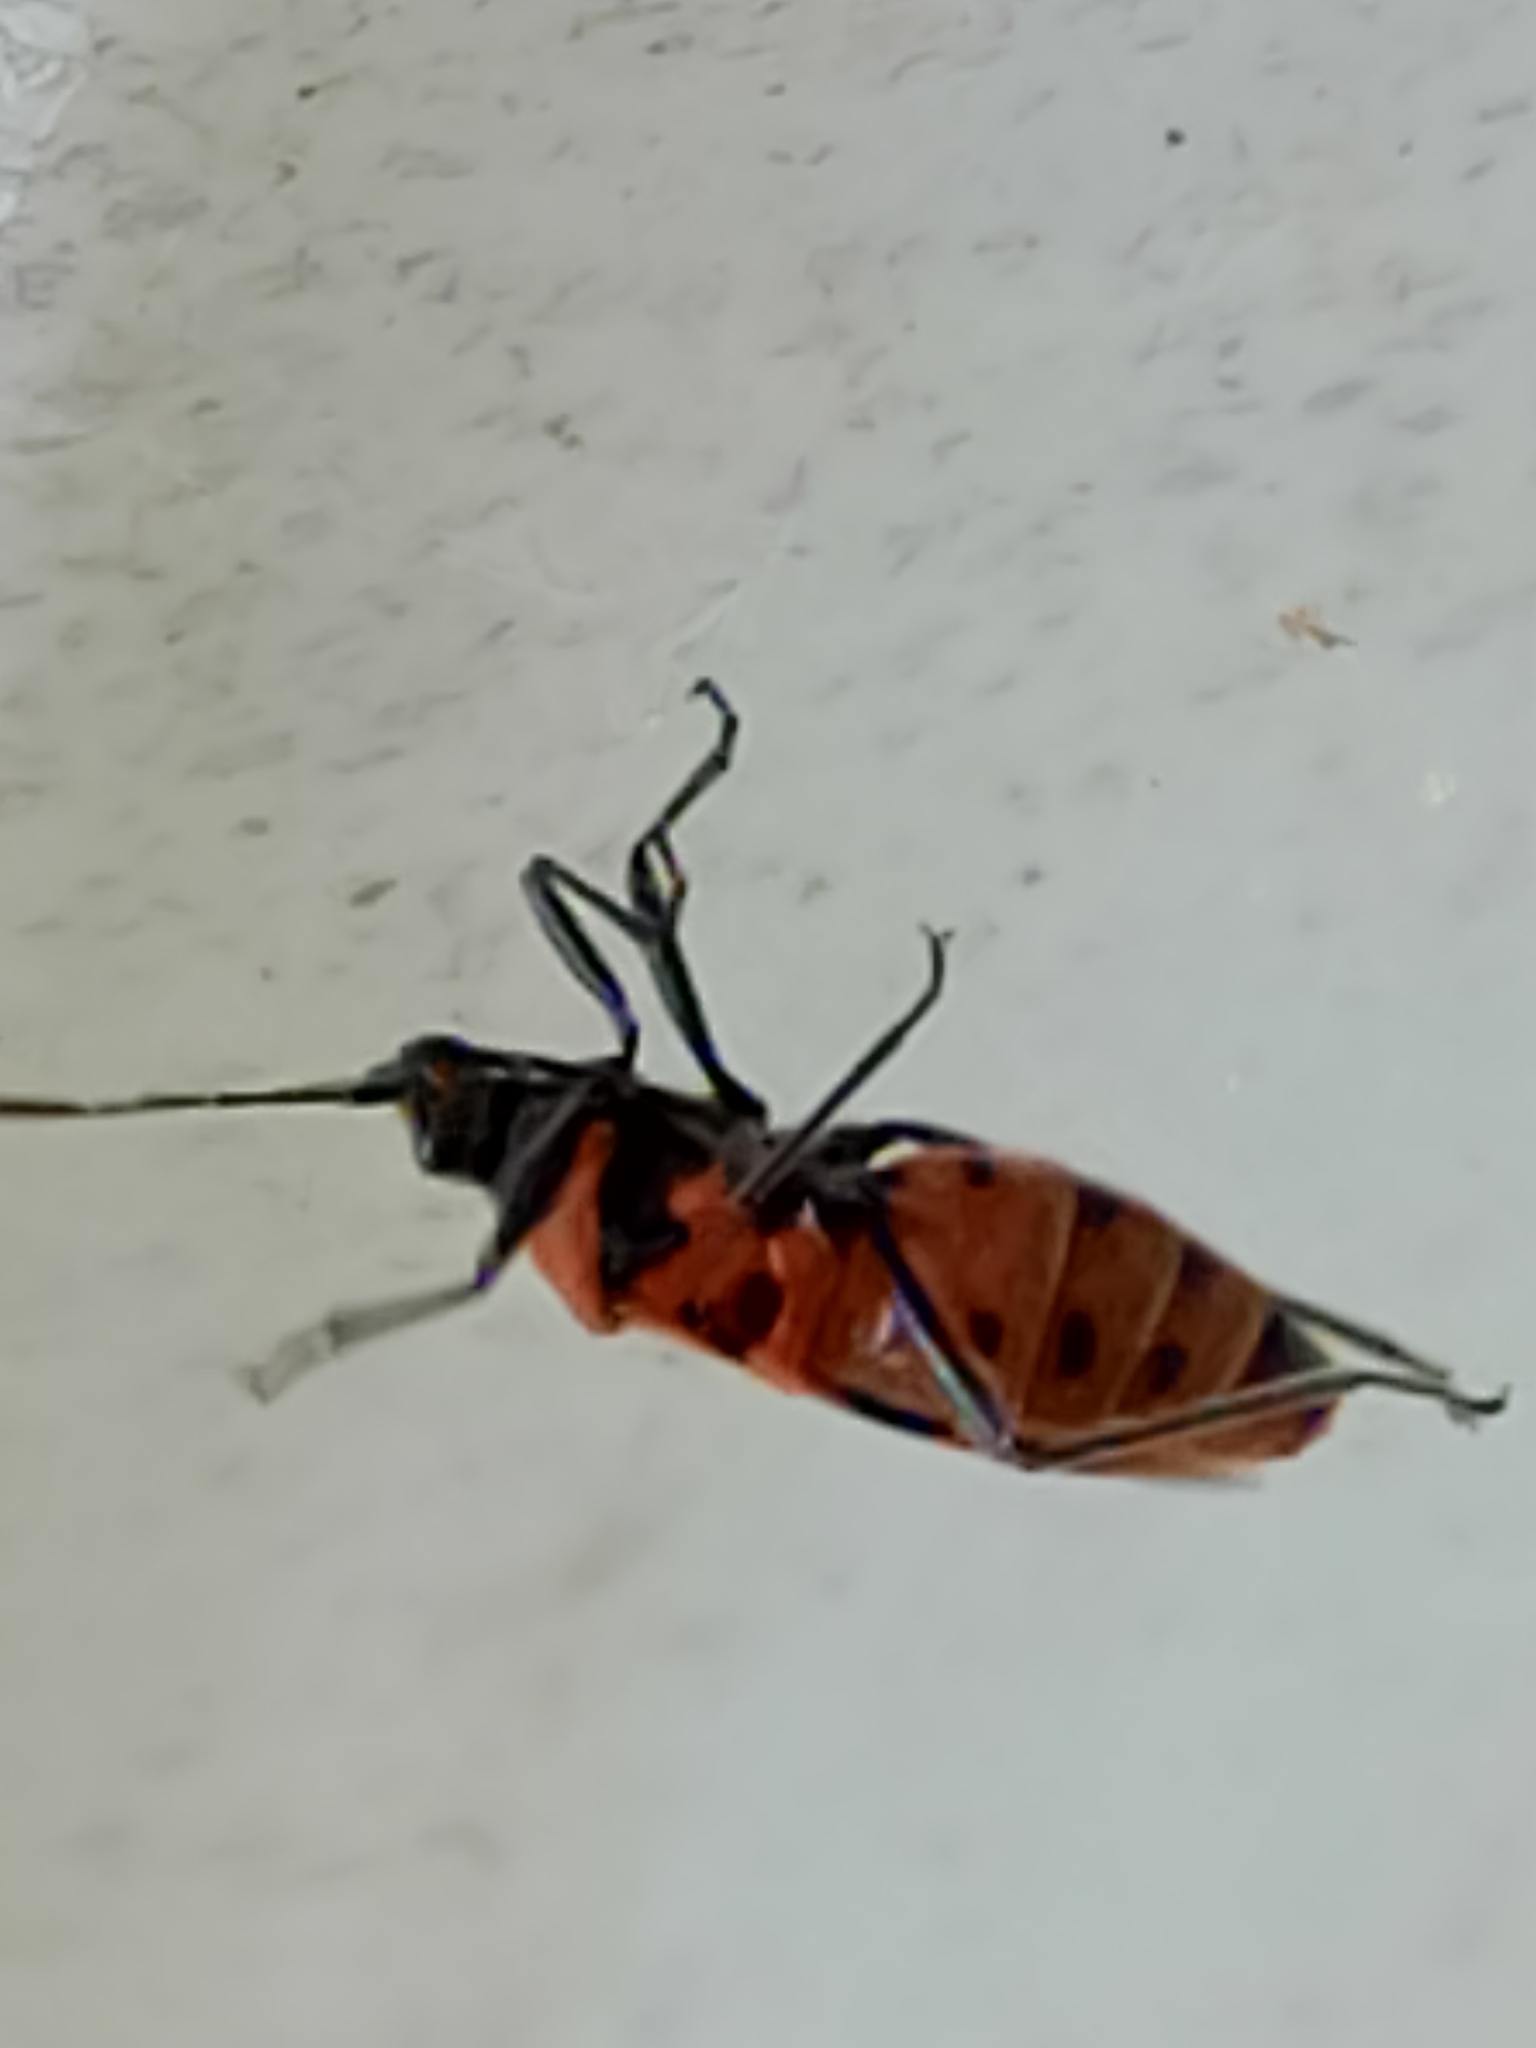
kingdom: Animalia
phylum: Arthropoda
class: Insecta
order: Hemiptera
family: Rhopalidae
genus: Corizus
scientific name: Corizus hyoscyami
